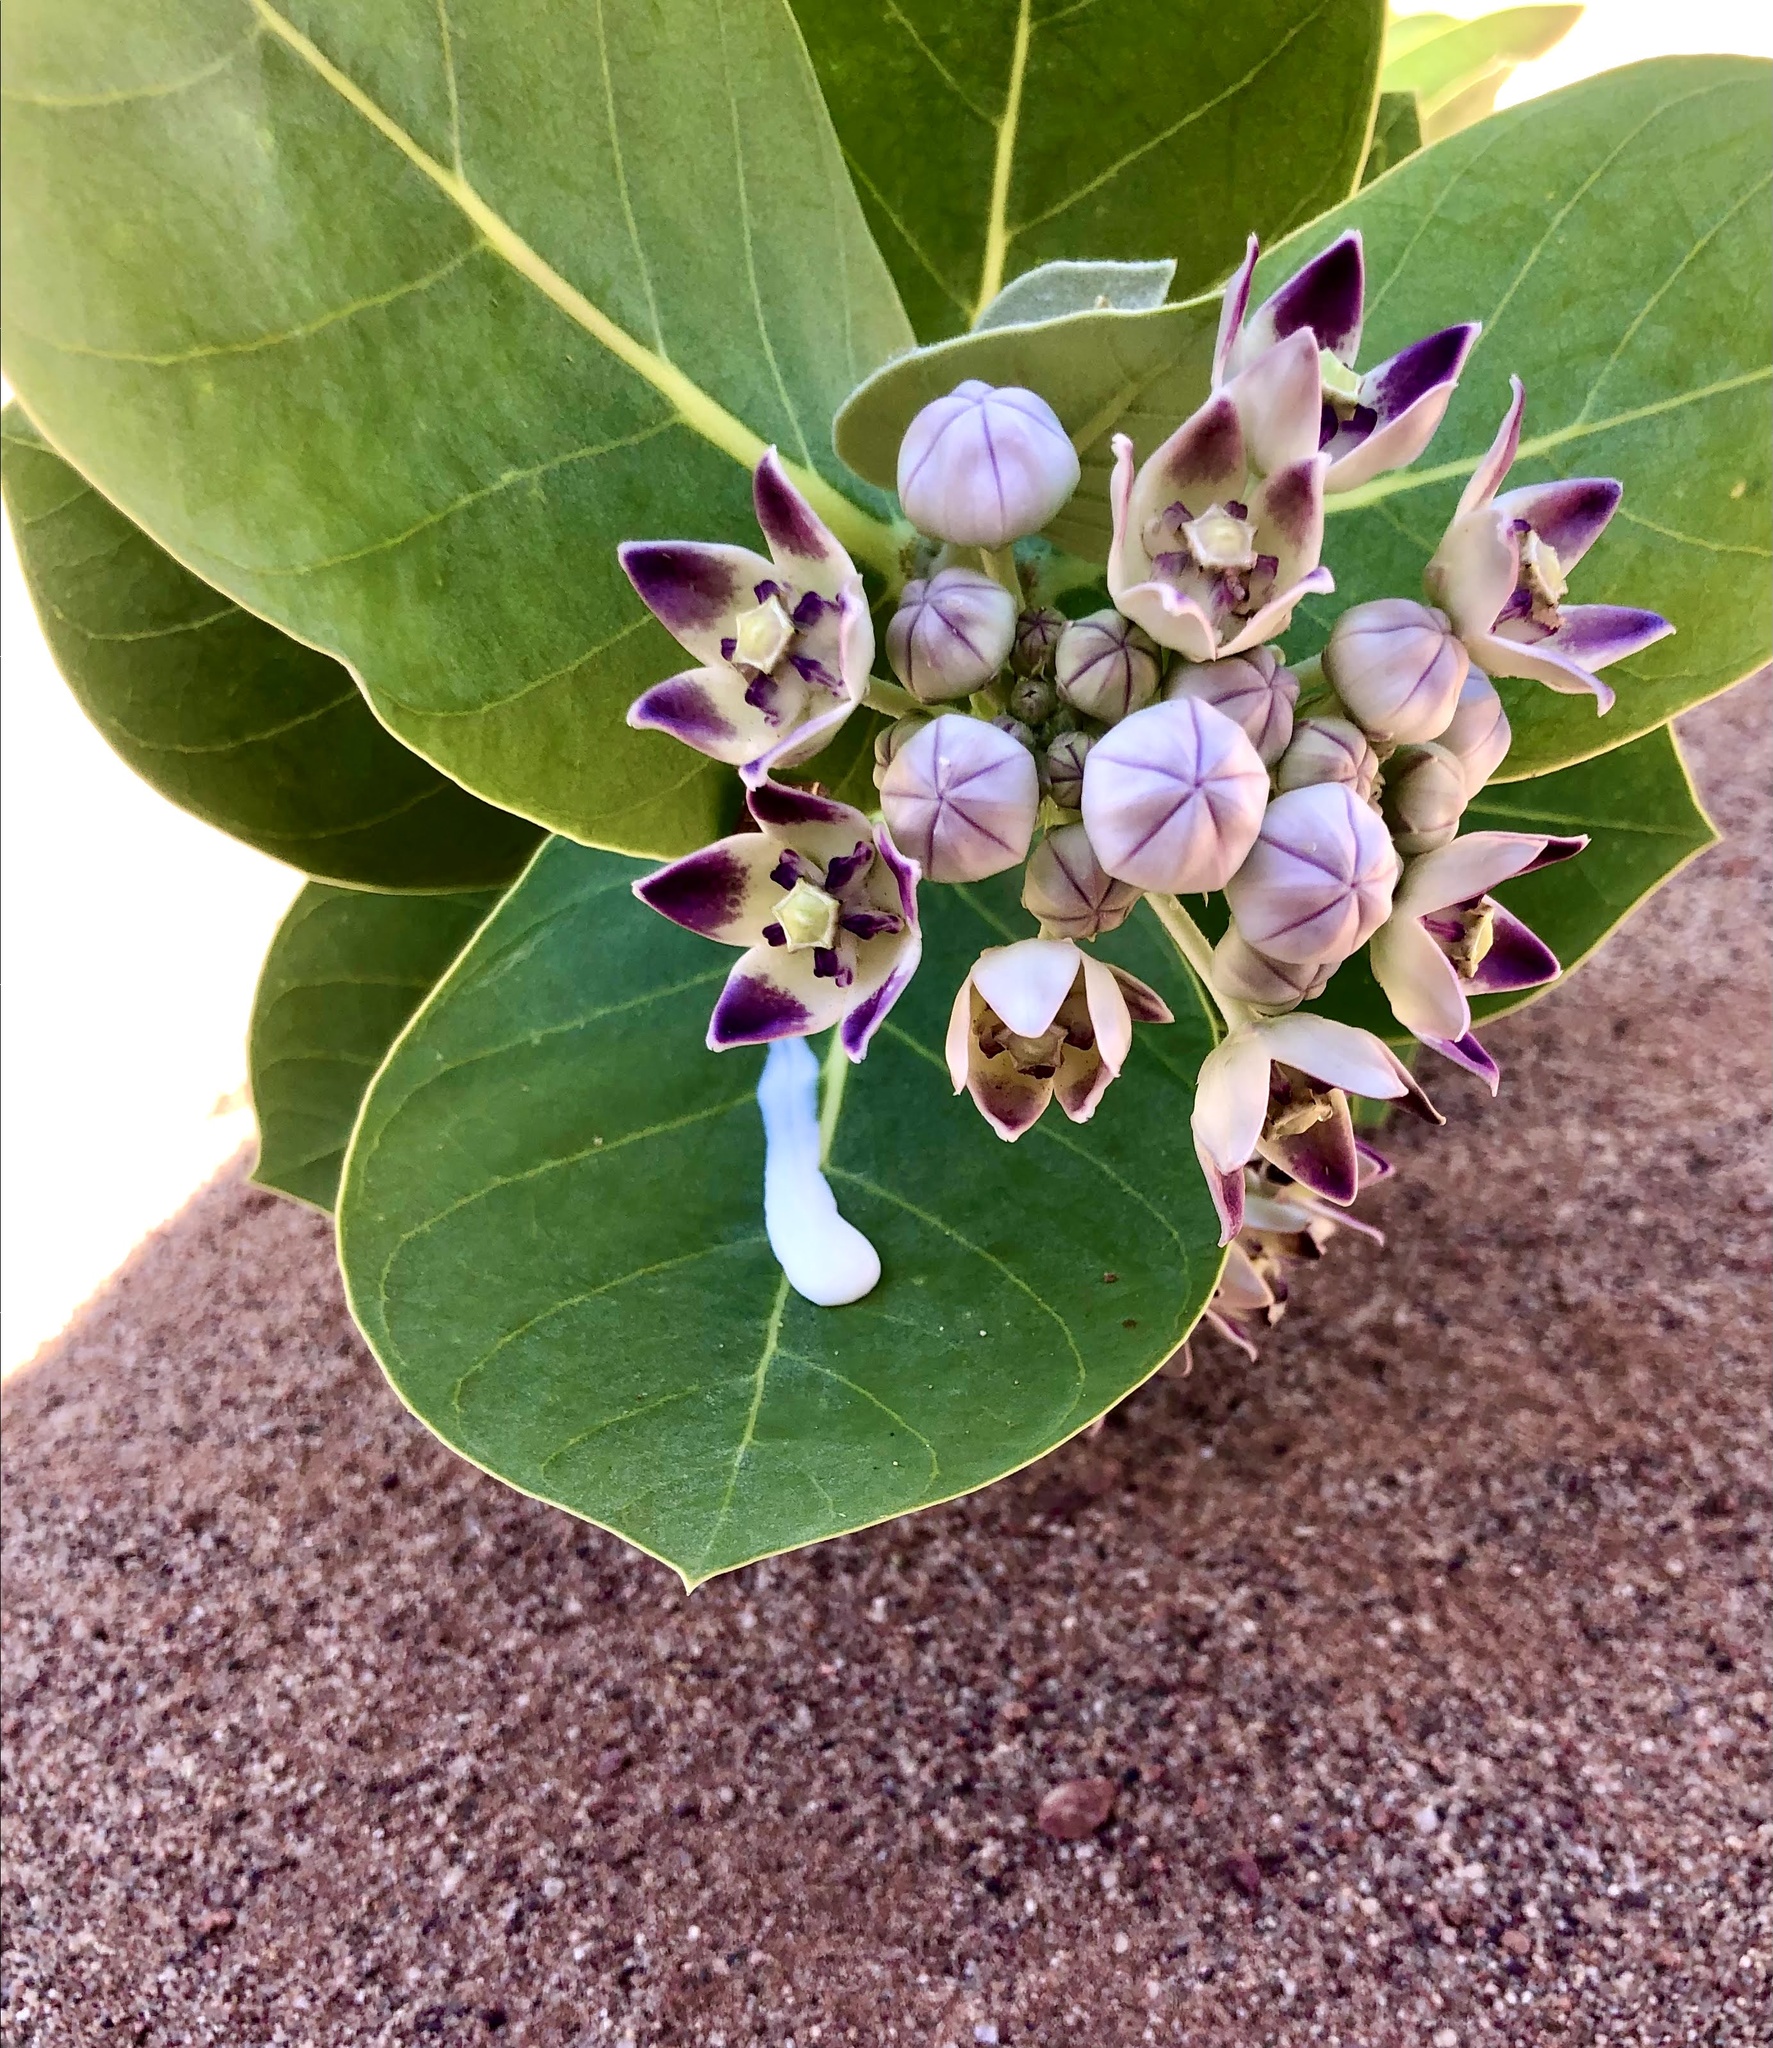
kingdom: Plantae
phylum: Tracheophyta
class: Magnoliopsida
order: Gentianales
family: Apocynaceae
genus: Calotropis
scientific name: Calotropis procera
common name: Roostertree
